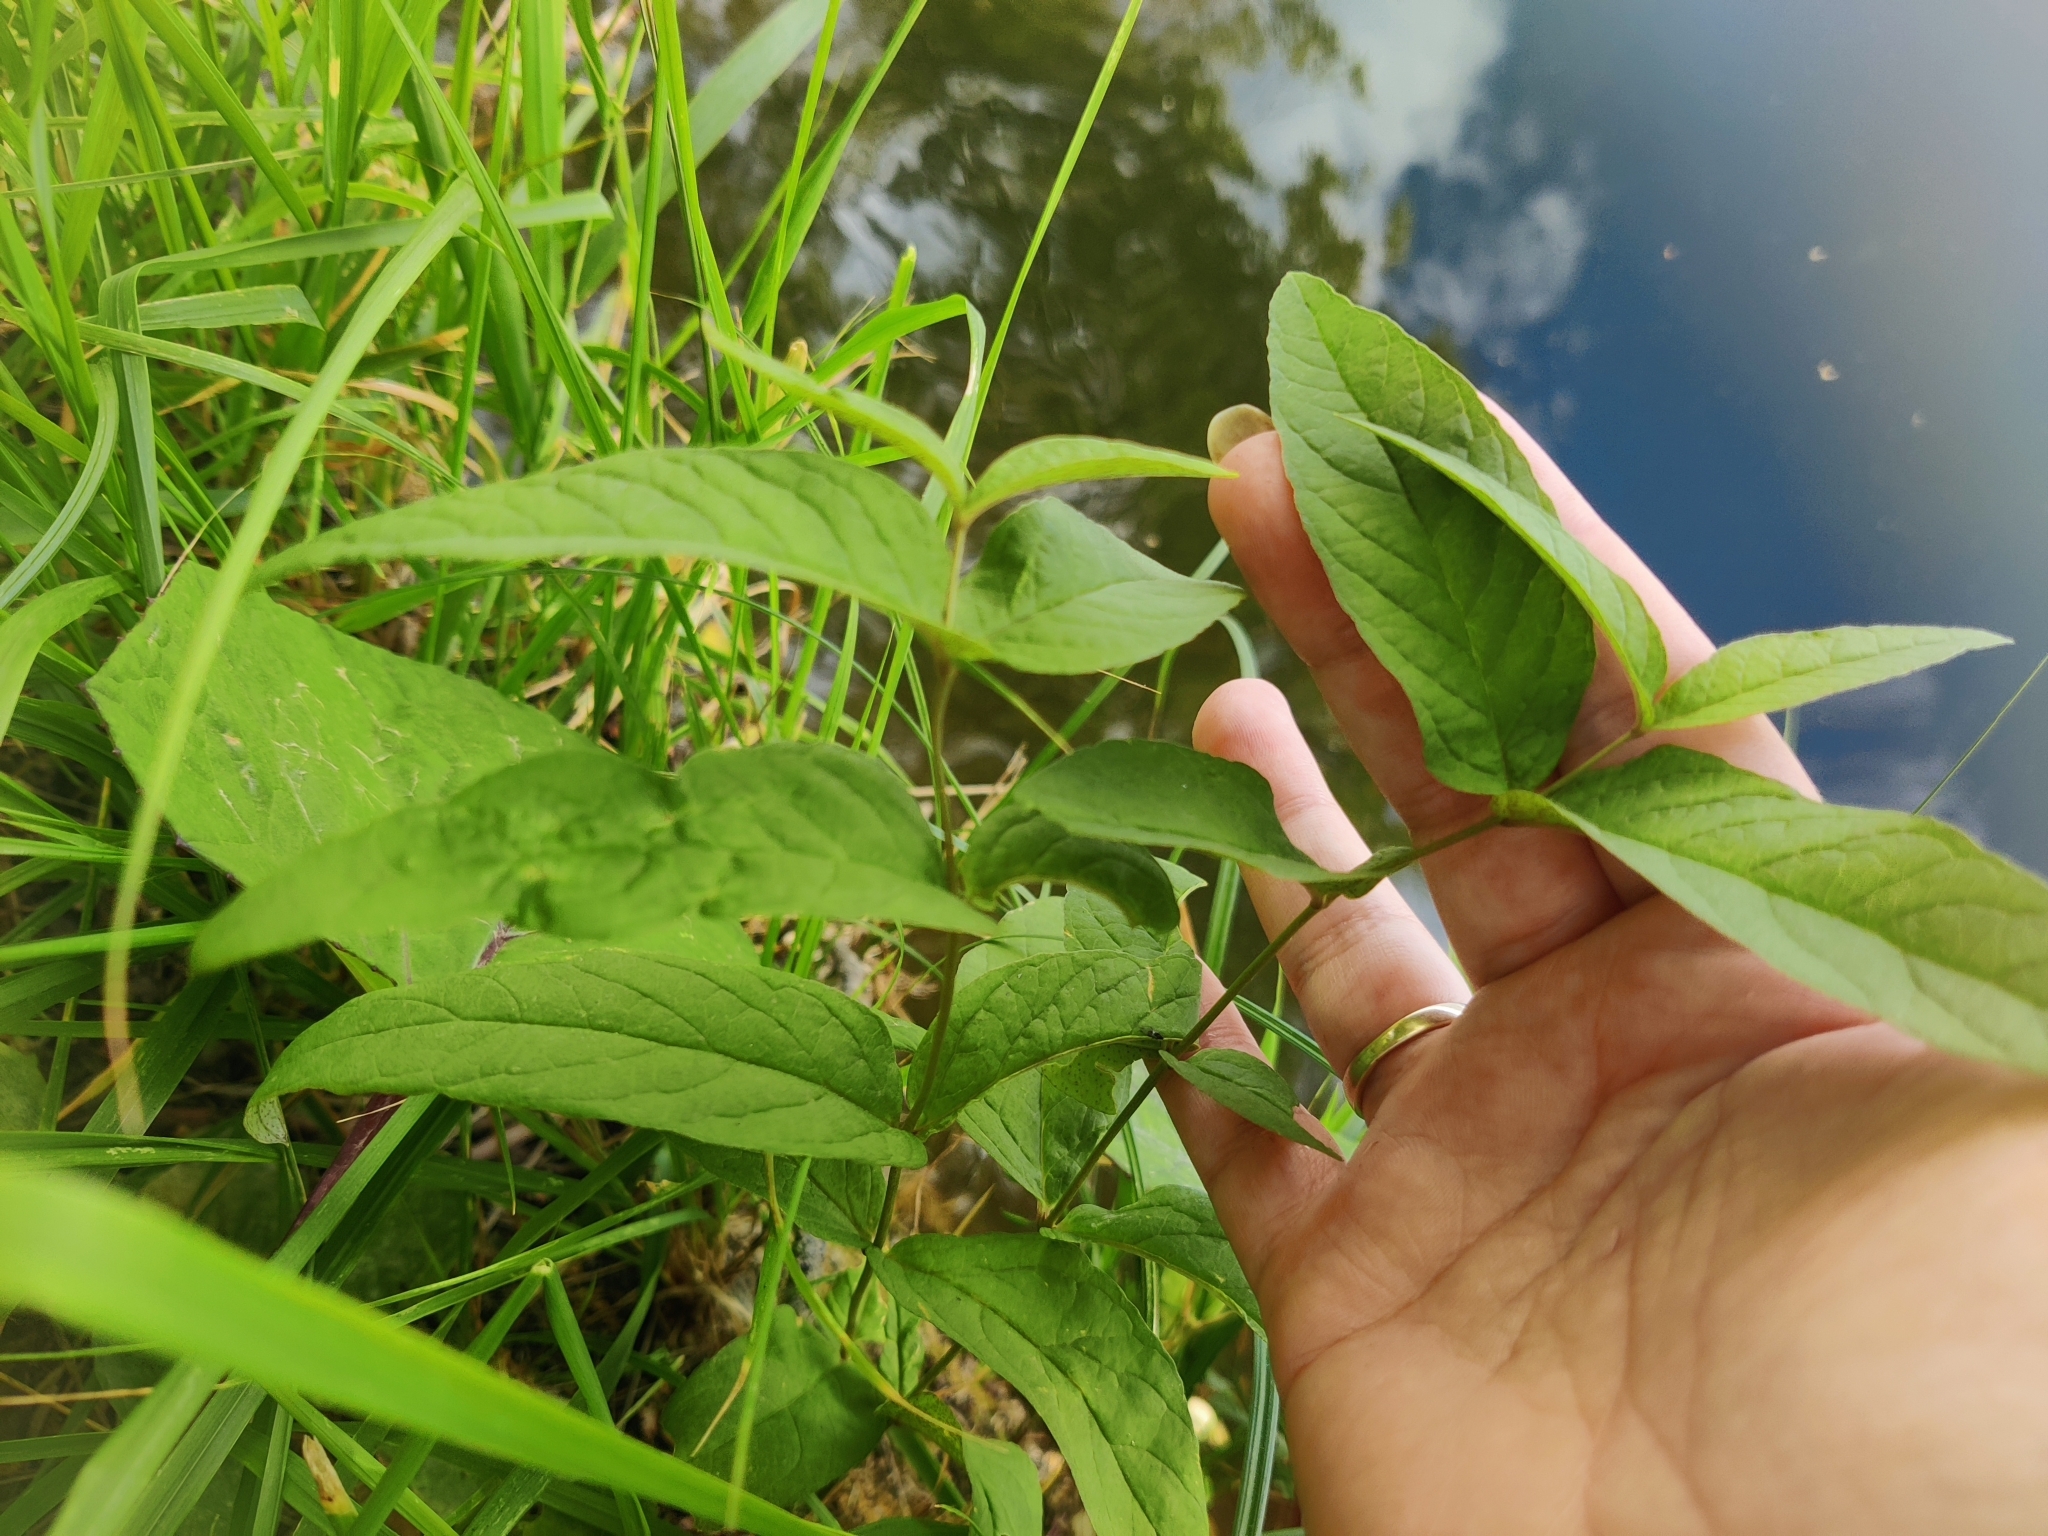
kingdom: Plantae
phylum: Tracheophyta
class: Magnoliopsida
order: Ericales
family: Primulaceae
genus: Lysimachia
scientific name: Lysimachia vulgaris
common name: Yellow loosestrife
